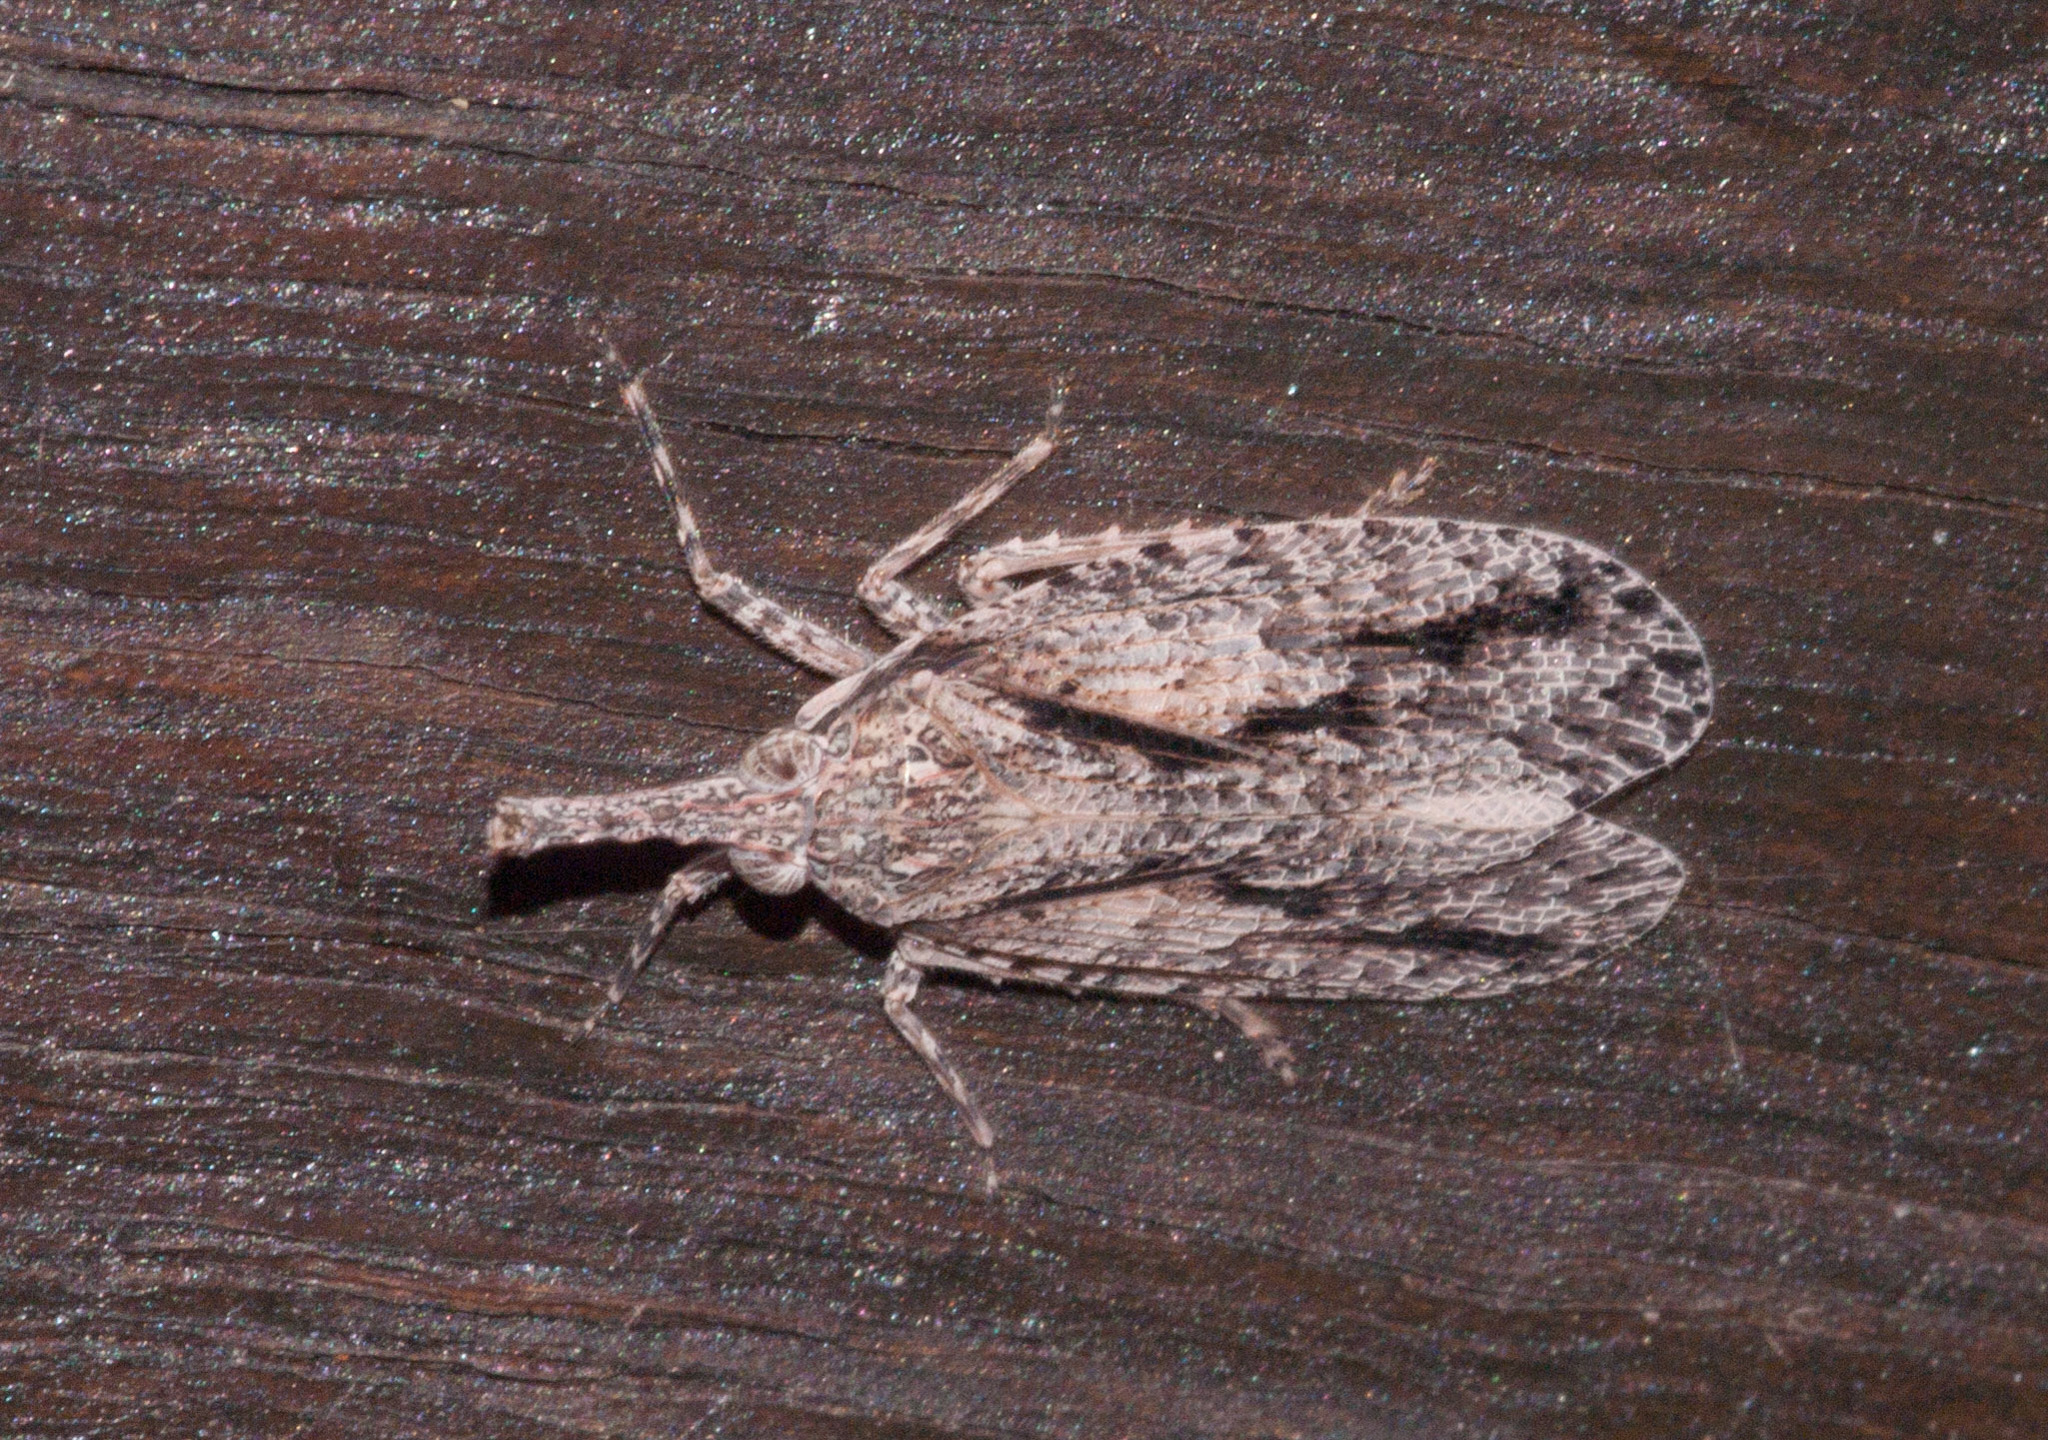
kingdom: Animalia
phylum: Arthropoda
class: Insecta
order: Hemiptera
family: Fulgoridae
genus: Eurinopsyche
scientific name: Eurinopsyche obscurata
